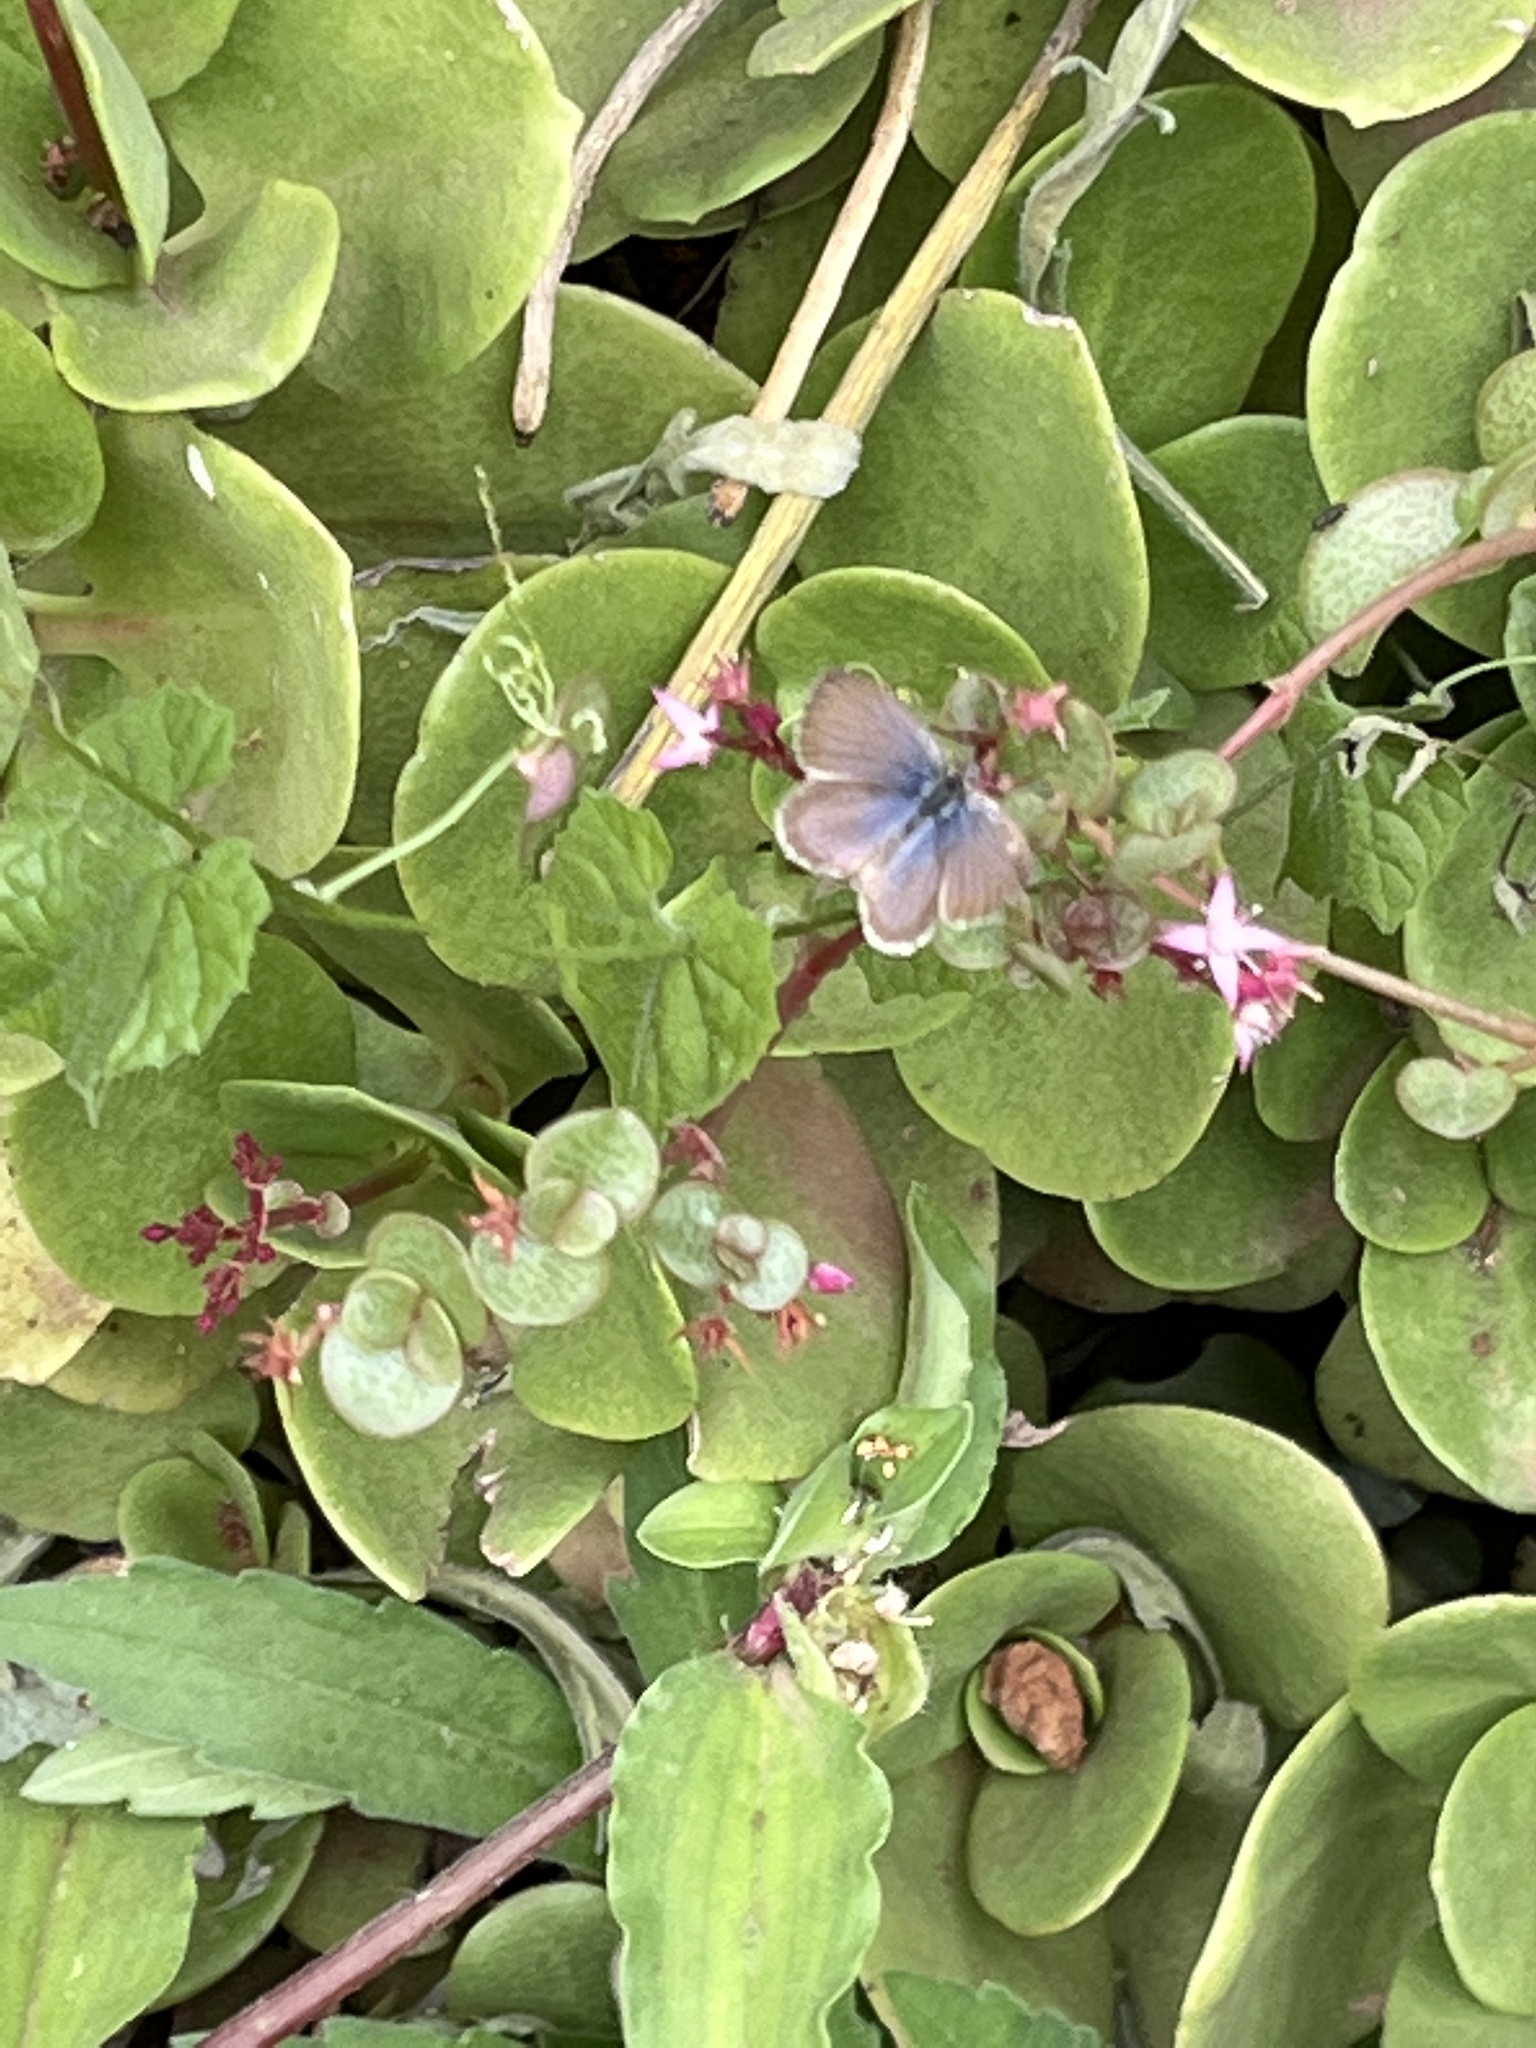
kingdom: Animalia
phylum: Arthropoda
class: Insecta
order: Lepidoptera
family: Lycaenidae
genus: Zizeeria
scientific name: Zizeeria knysna
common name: African grass blue
